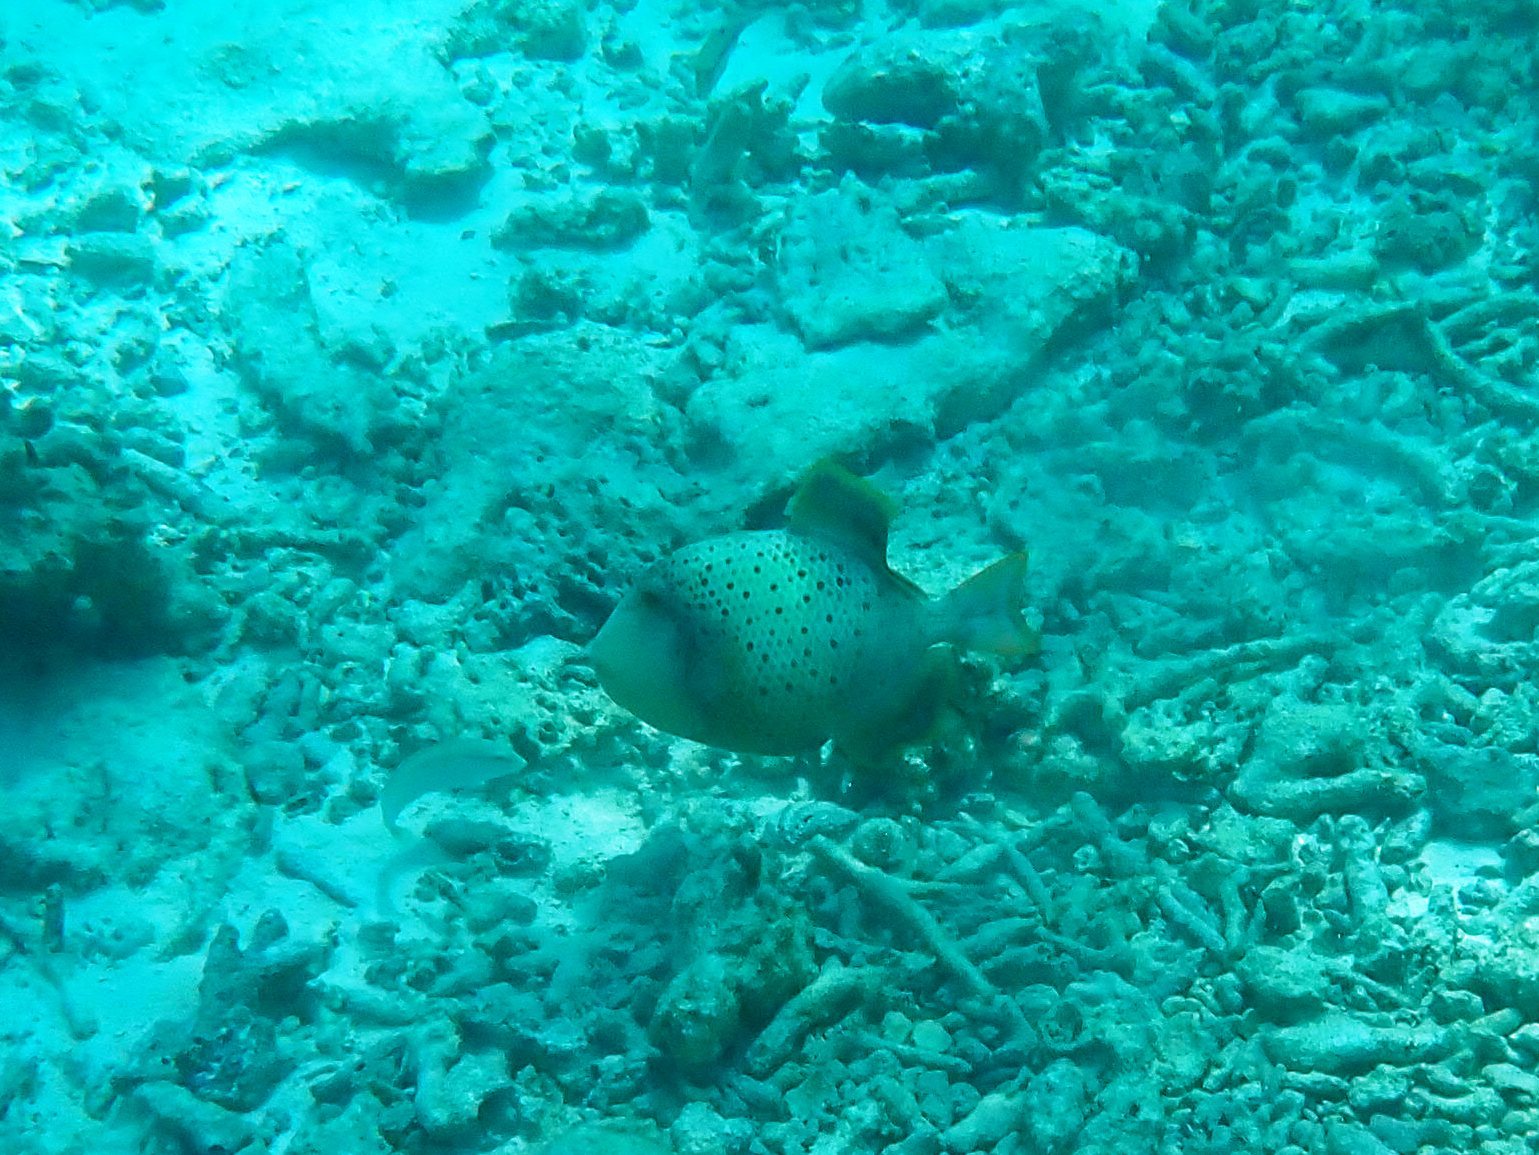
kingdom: Animalia
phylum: Chordata
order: Tetraodontiformes
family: Balistidae
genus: Pseudobalistes
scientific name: Pseudobalistes flavimarginatus
